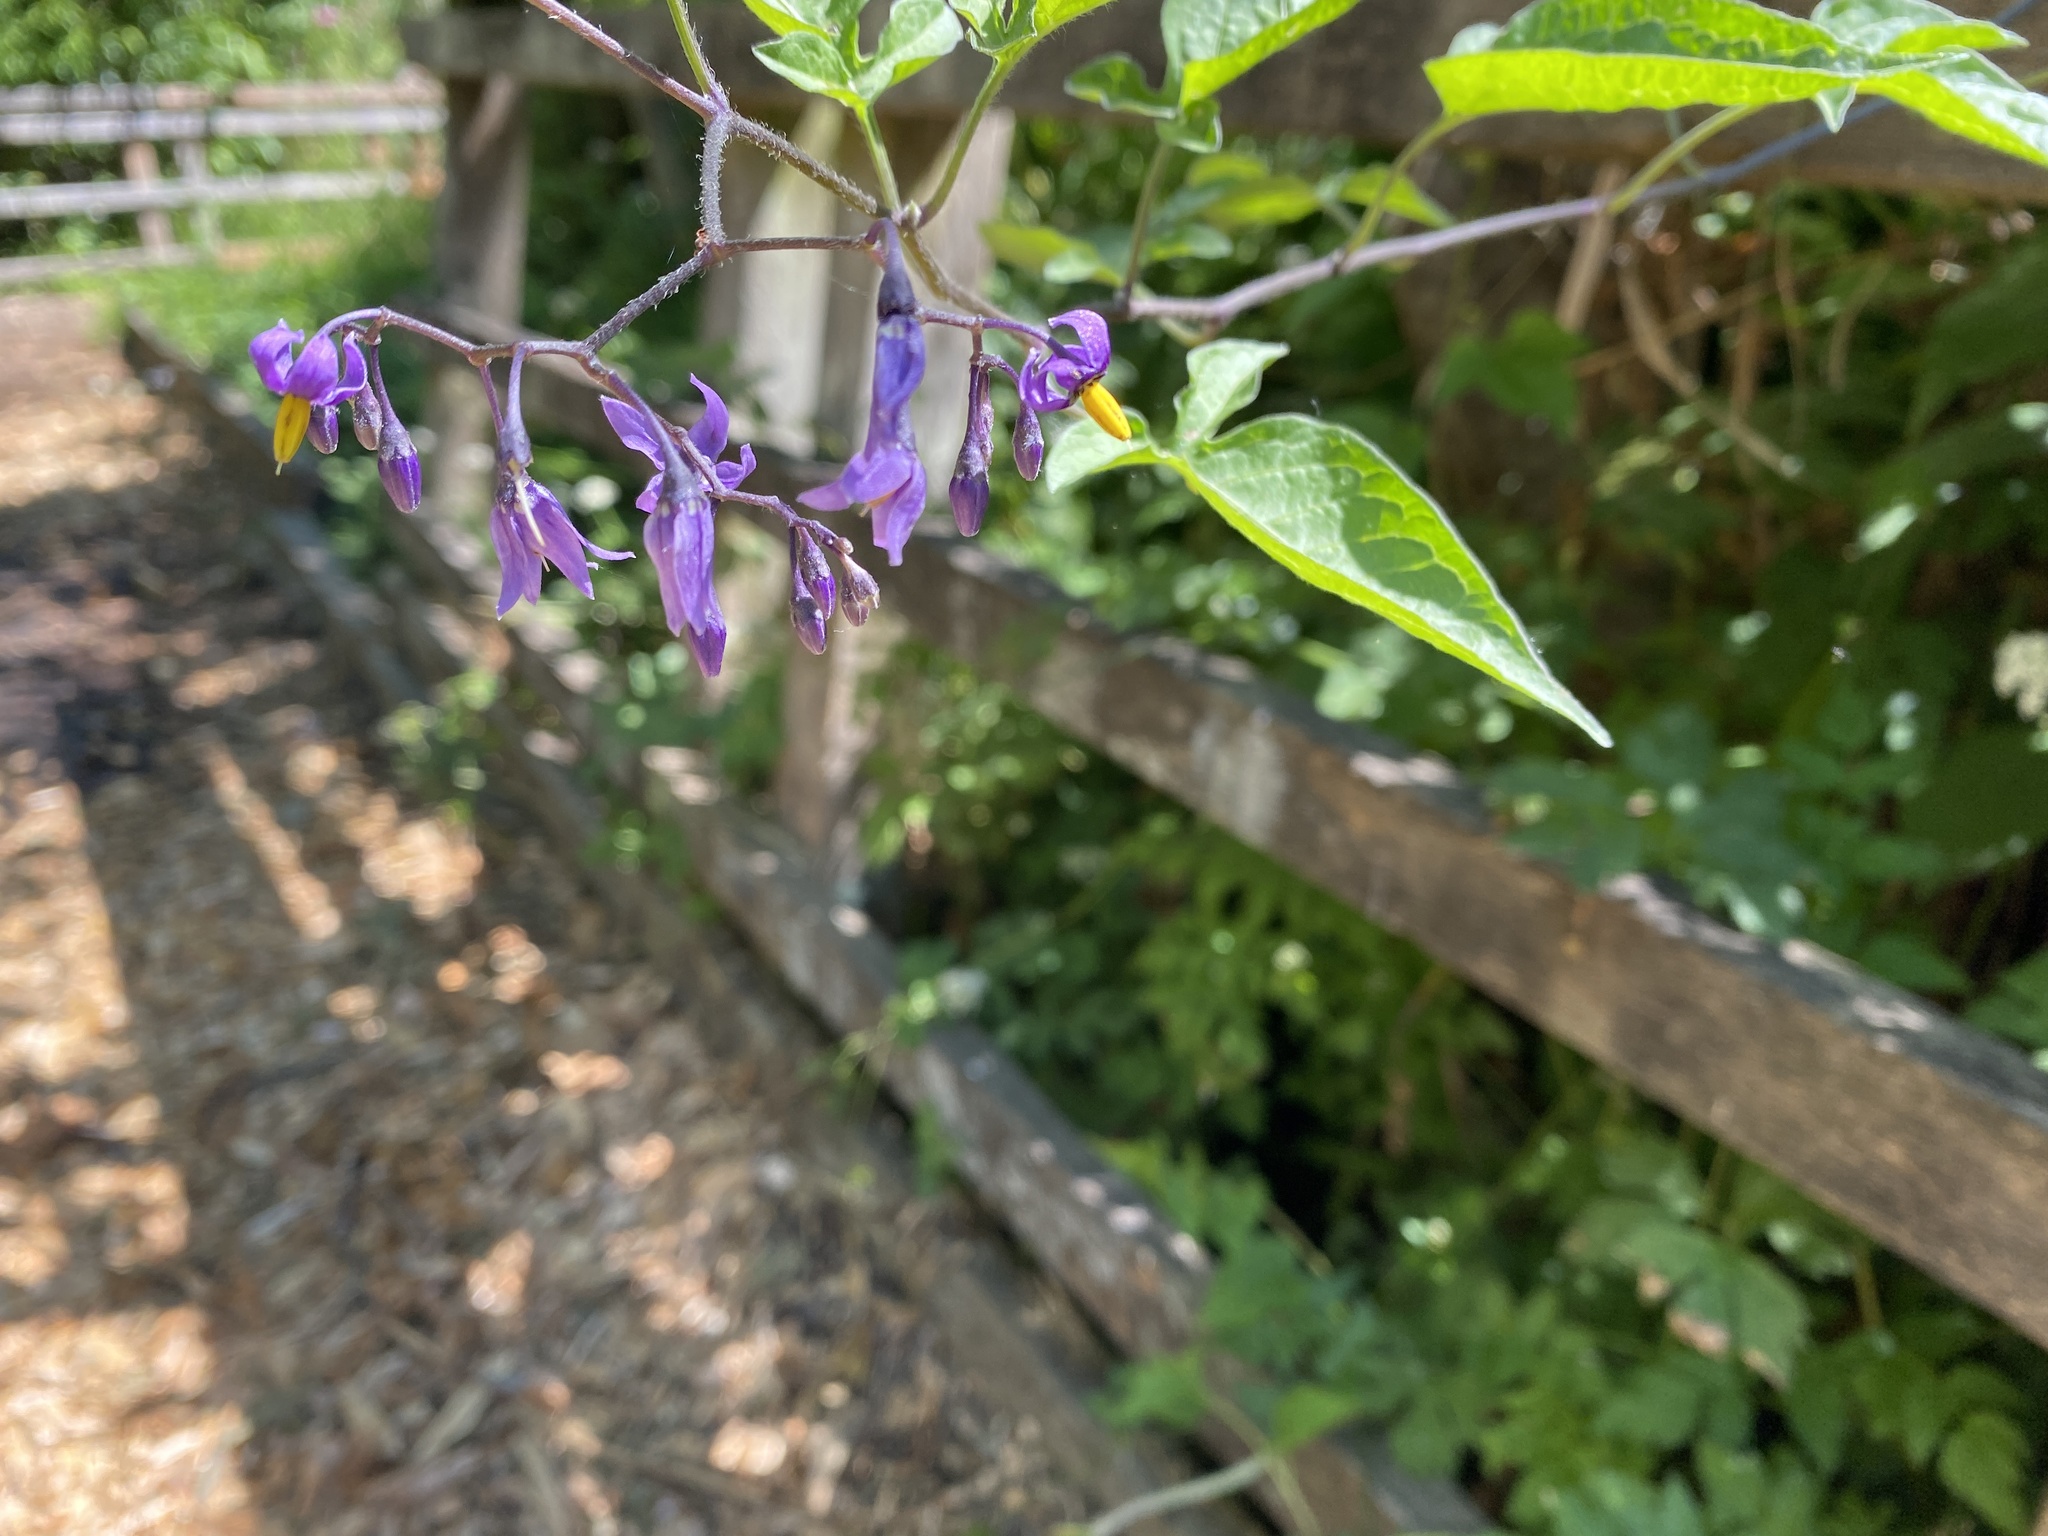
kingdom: Plantae
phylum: Tracheophyta
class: Magnoliopsida
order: Solanales
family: Solanaceae
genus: Solanum
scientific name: Solanum dulcamara
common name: Climbing nightshade
